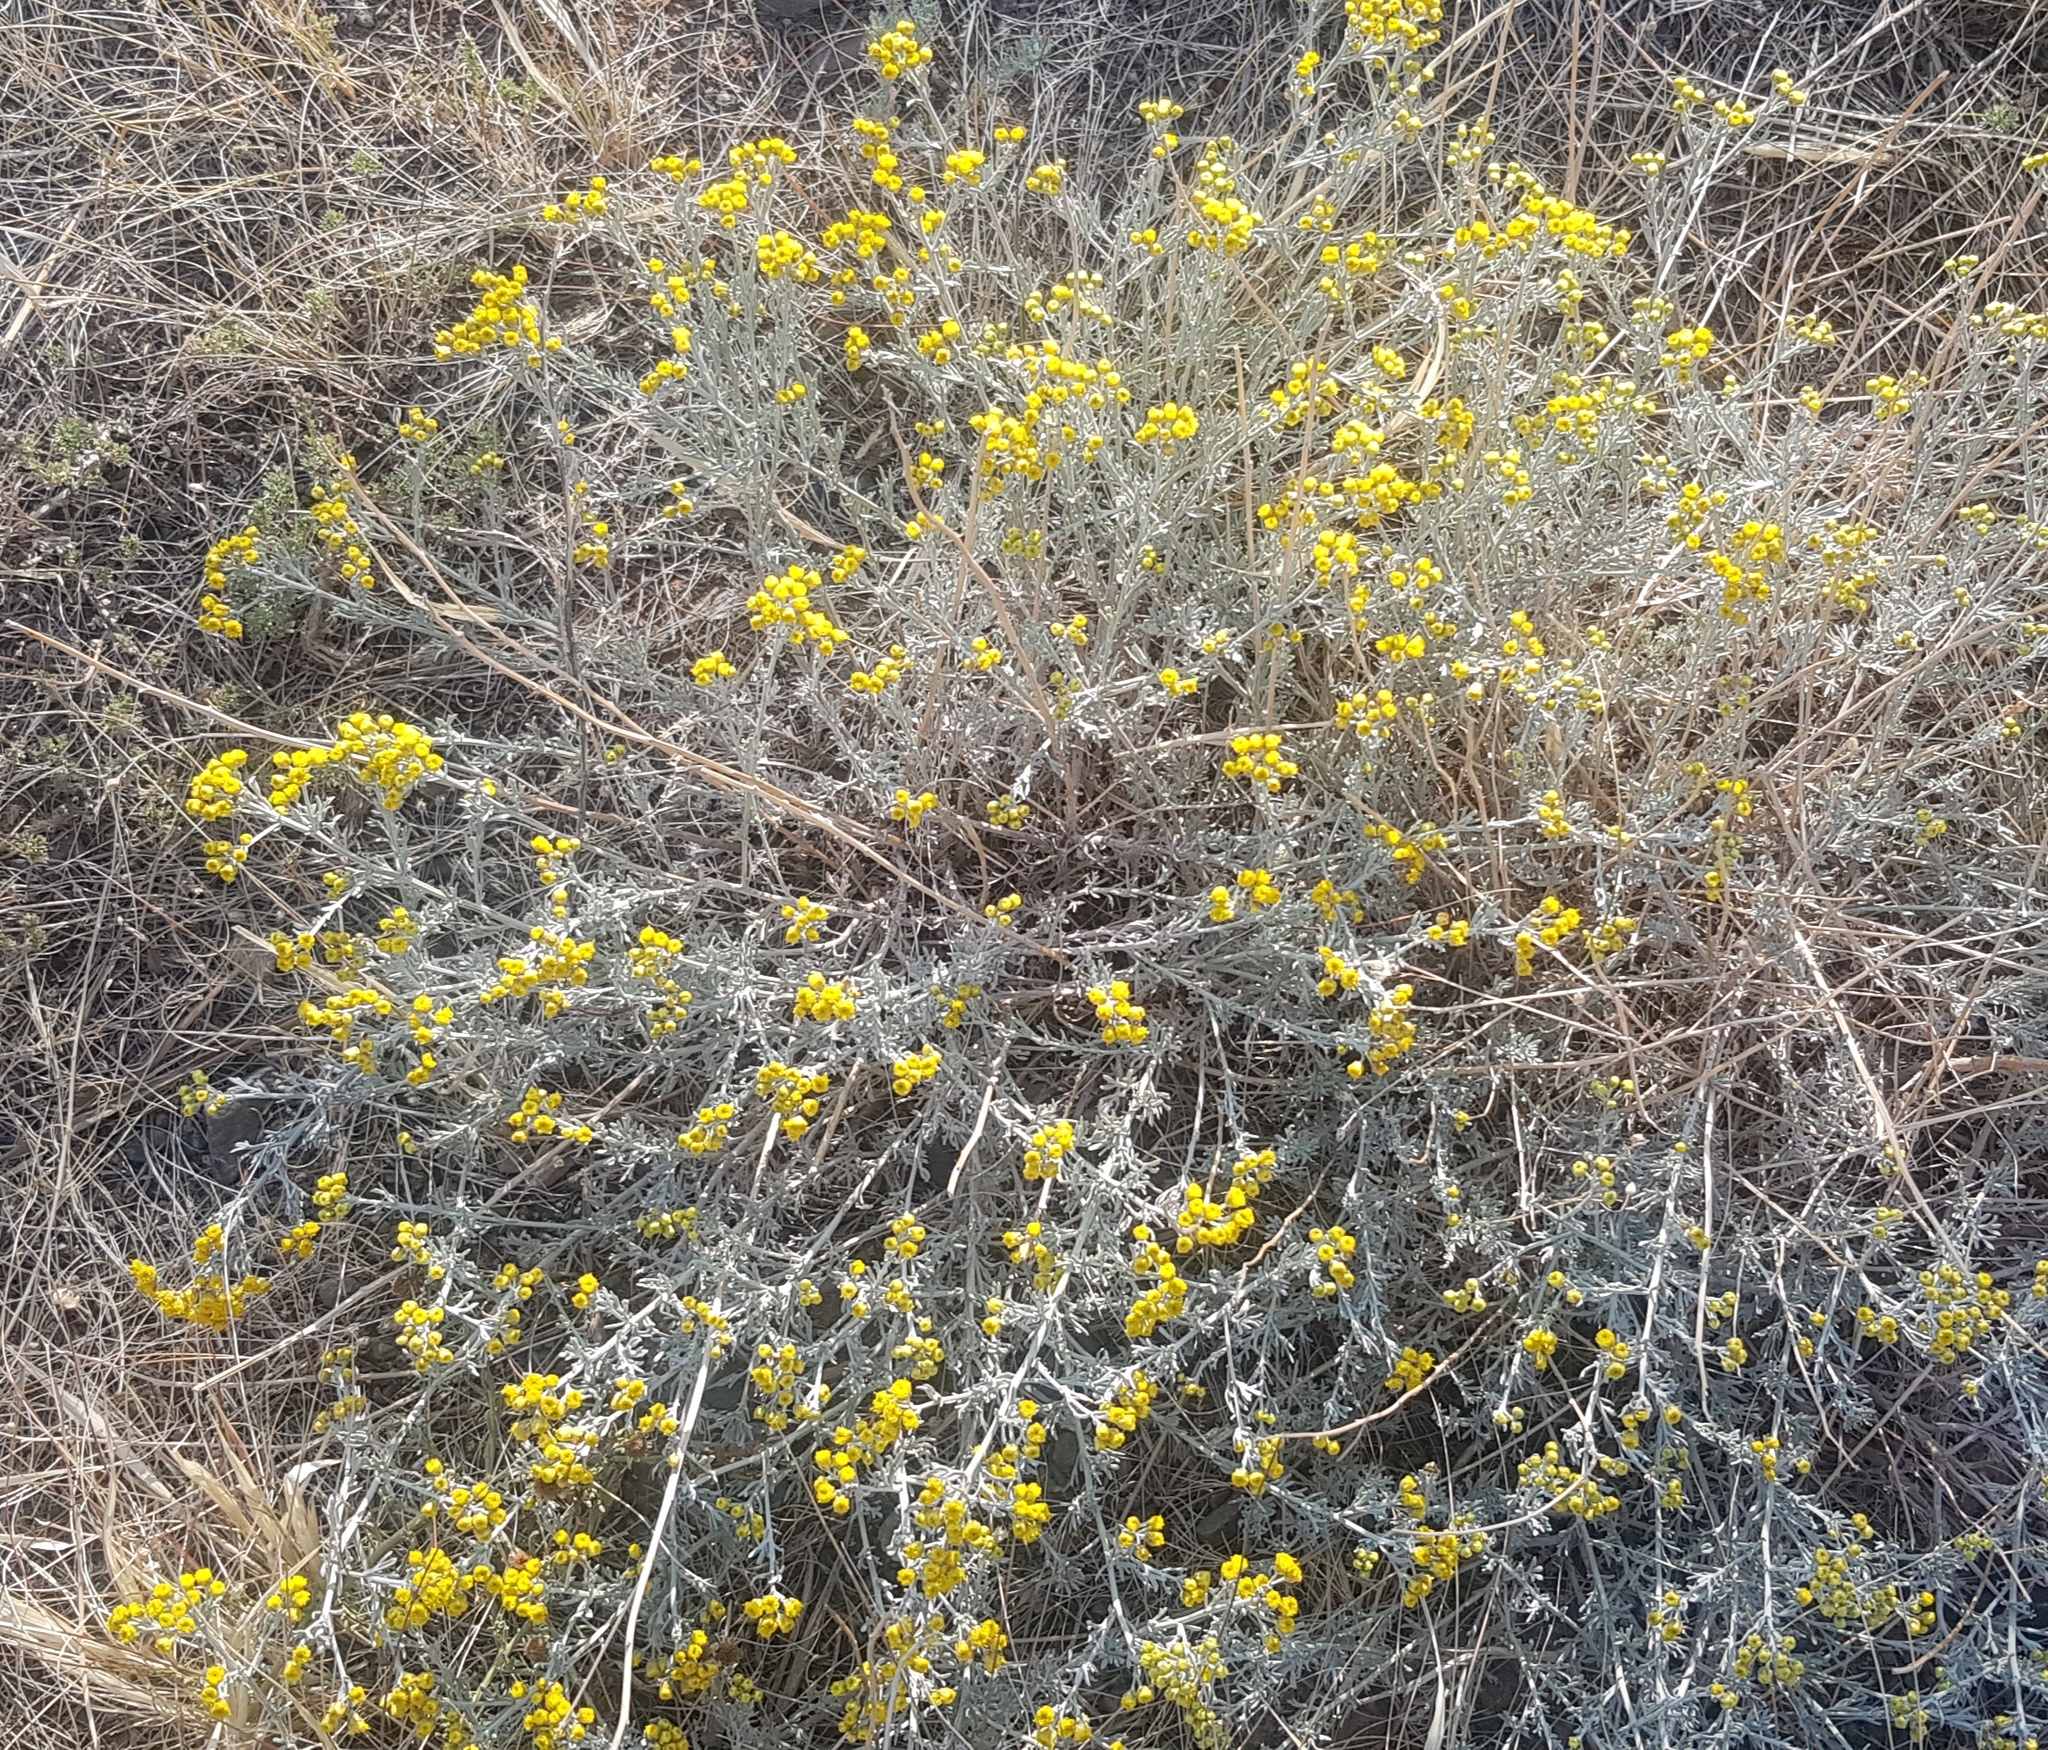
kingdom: Plantae
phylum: Tracheophyta
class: Magnoliopsida
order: Asterales
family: Asteraceae
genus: Ajania
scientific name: Ajania achilleoides
